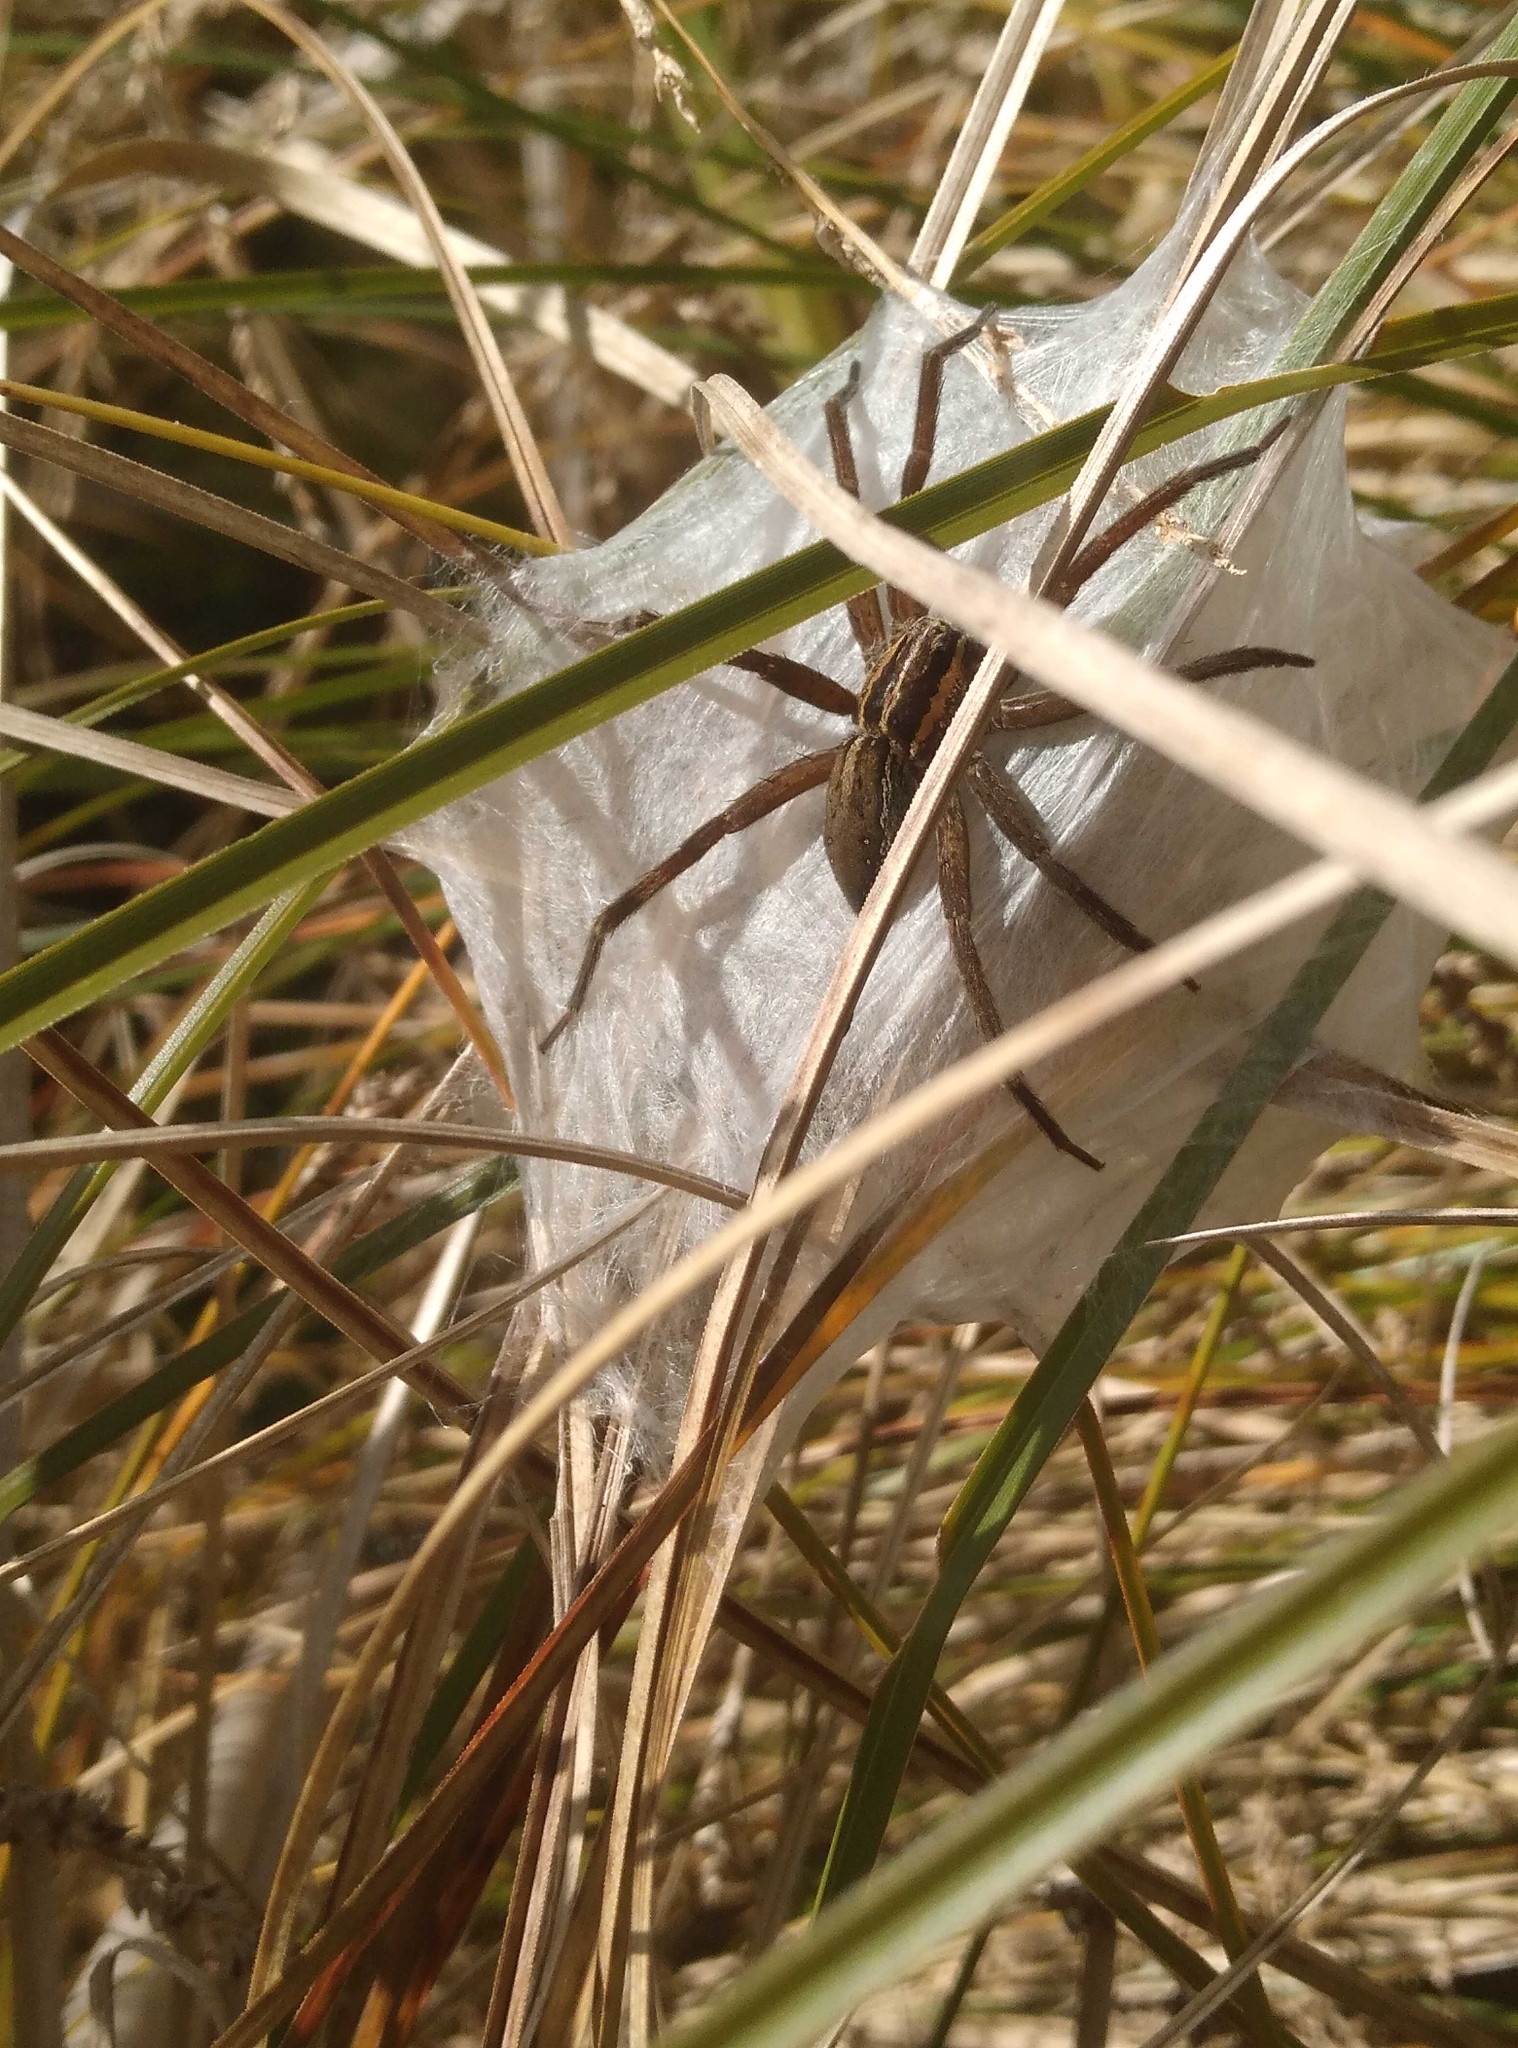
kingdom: Animalia
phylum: Arthropoda
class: Arachnida
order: Araneae
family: Pisauridae
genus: Dolomedes
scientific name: Dolomedes minor
